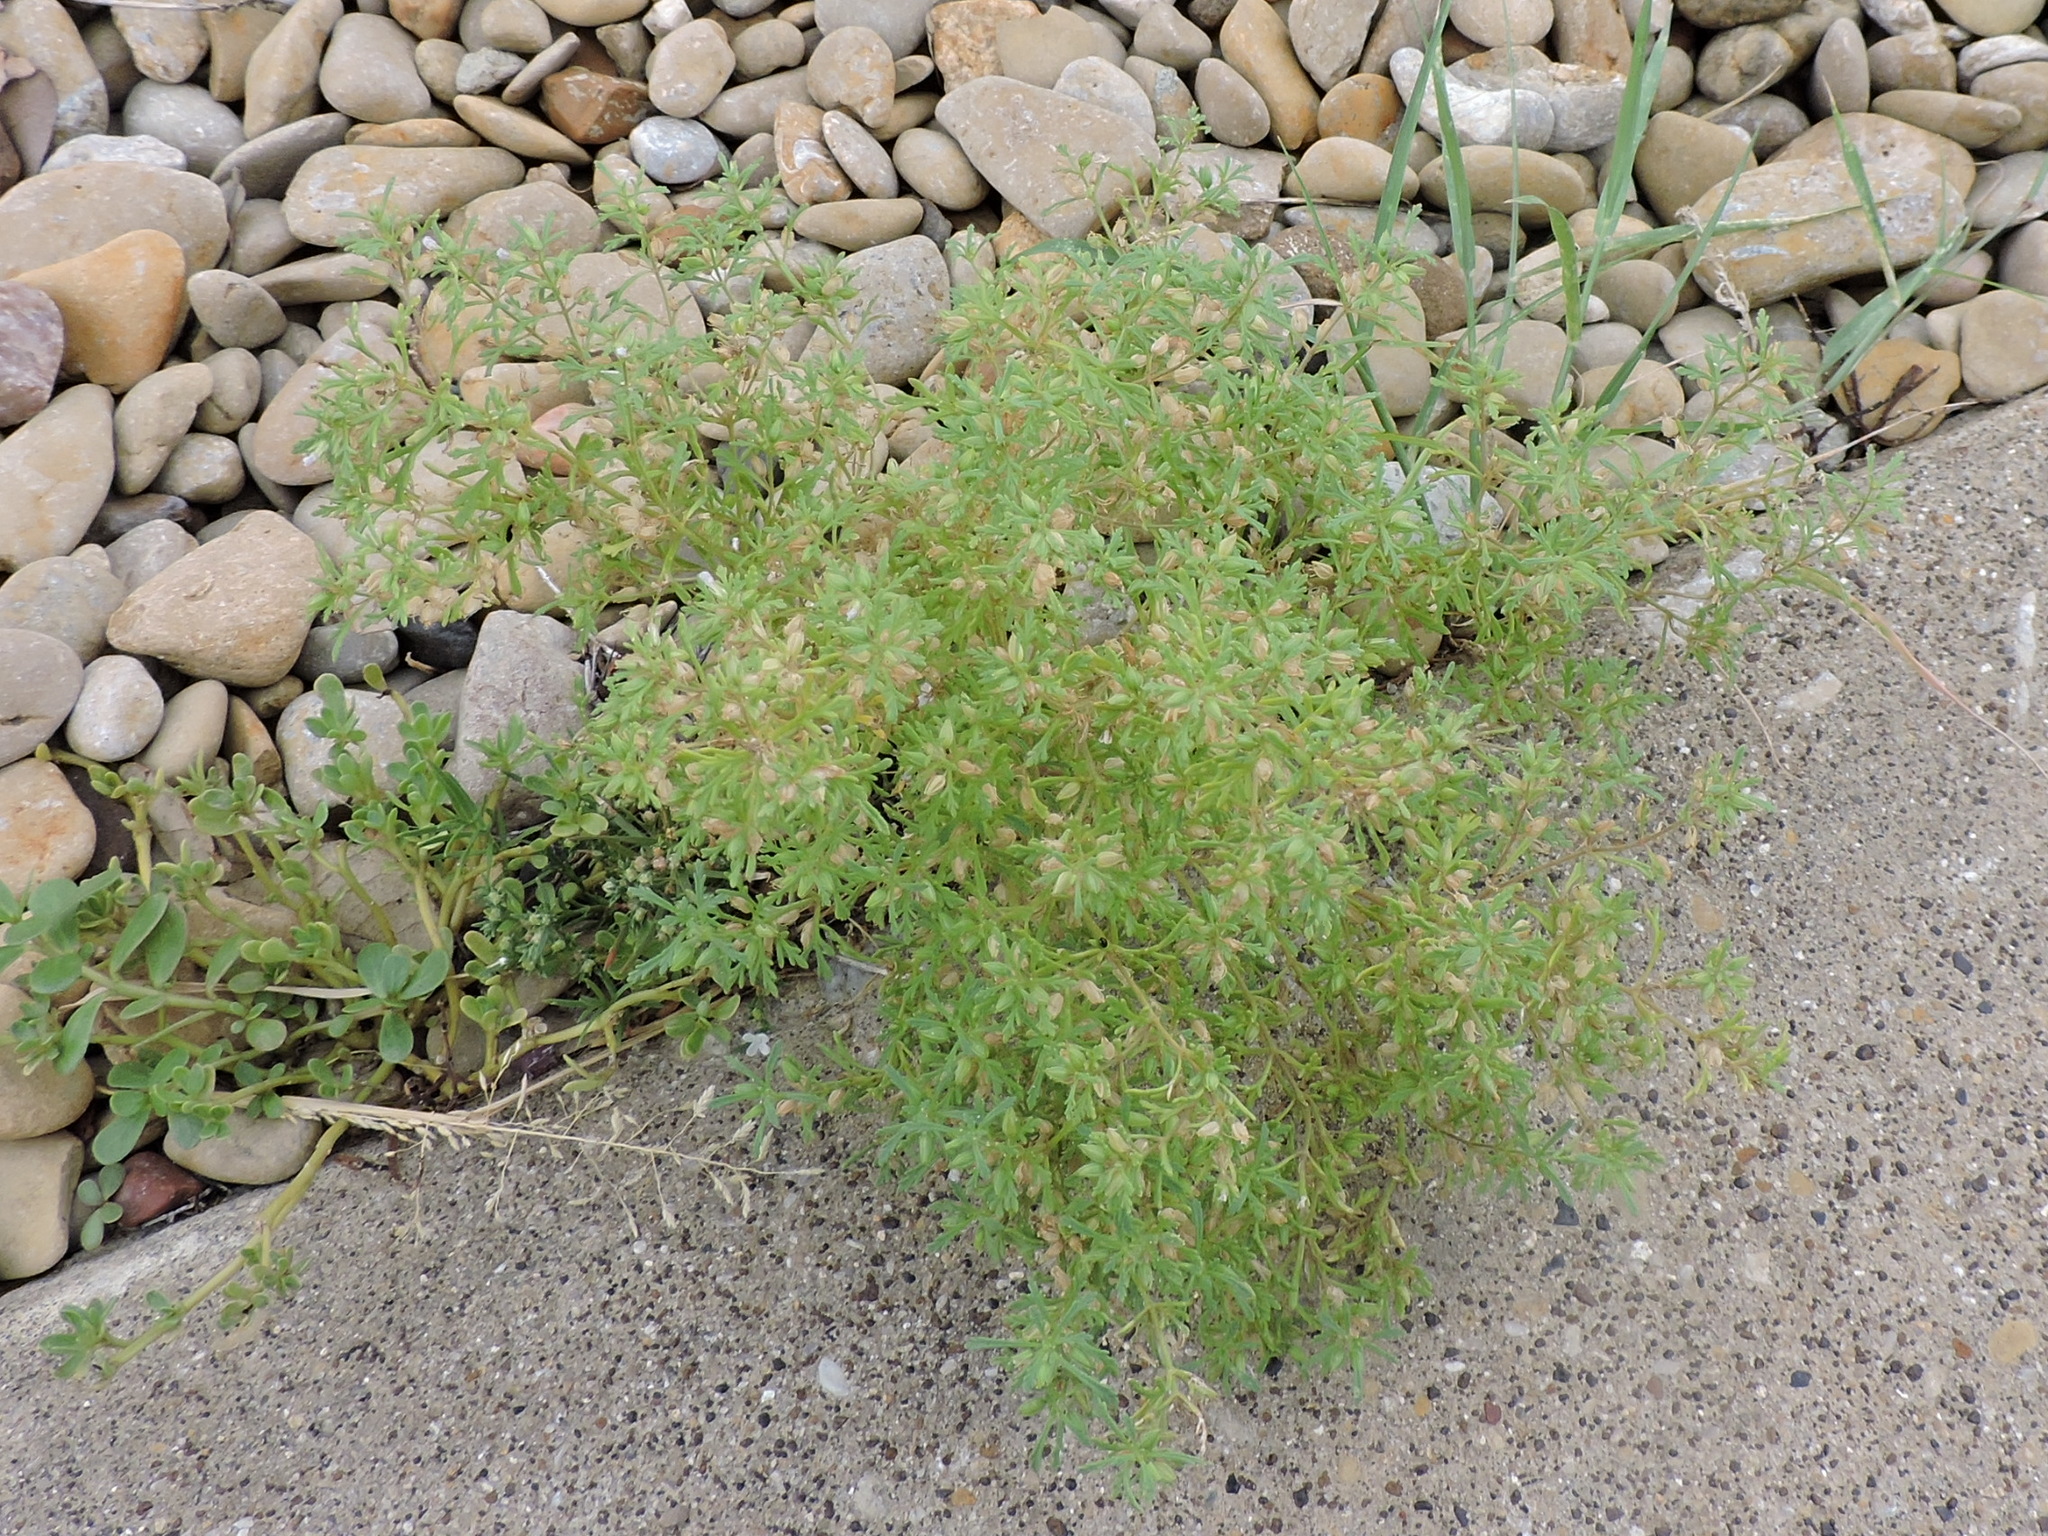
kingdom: Plantae
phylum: Tracheophyta
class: Magnoliopsida
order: Lamiales
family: Plantaginaceae
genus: Leucospora
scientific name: Leucospora multifida
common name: Narrow-leaf paleseed
